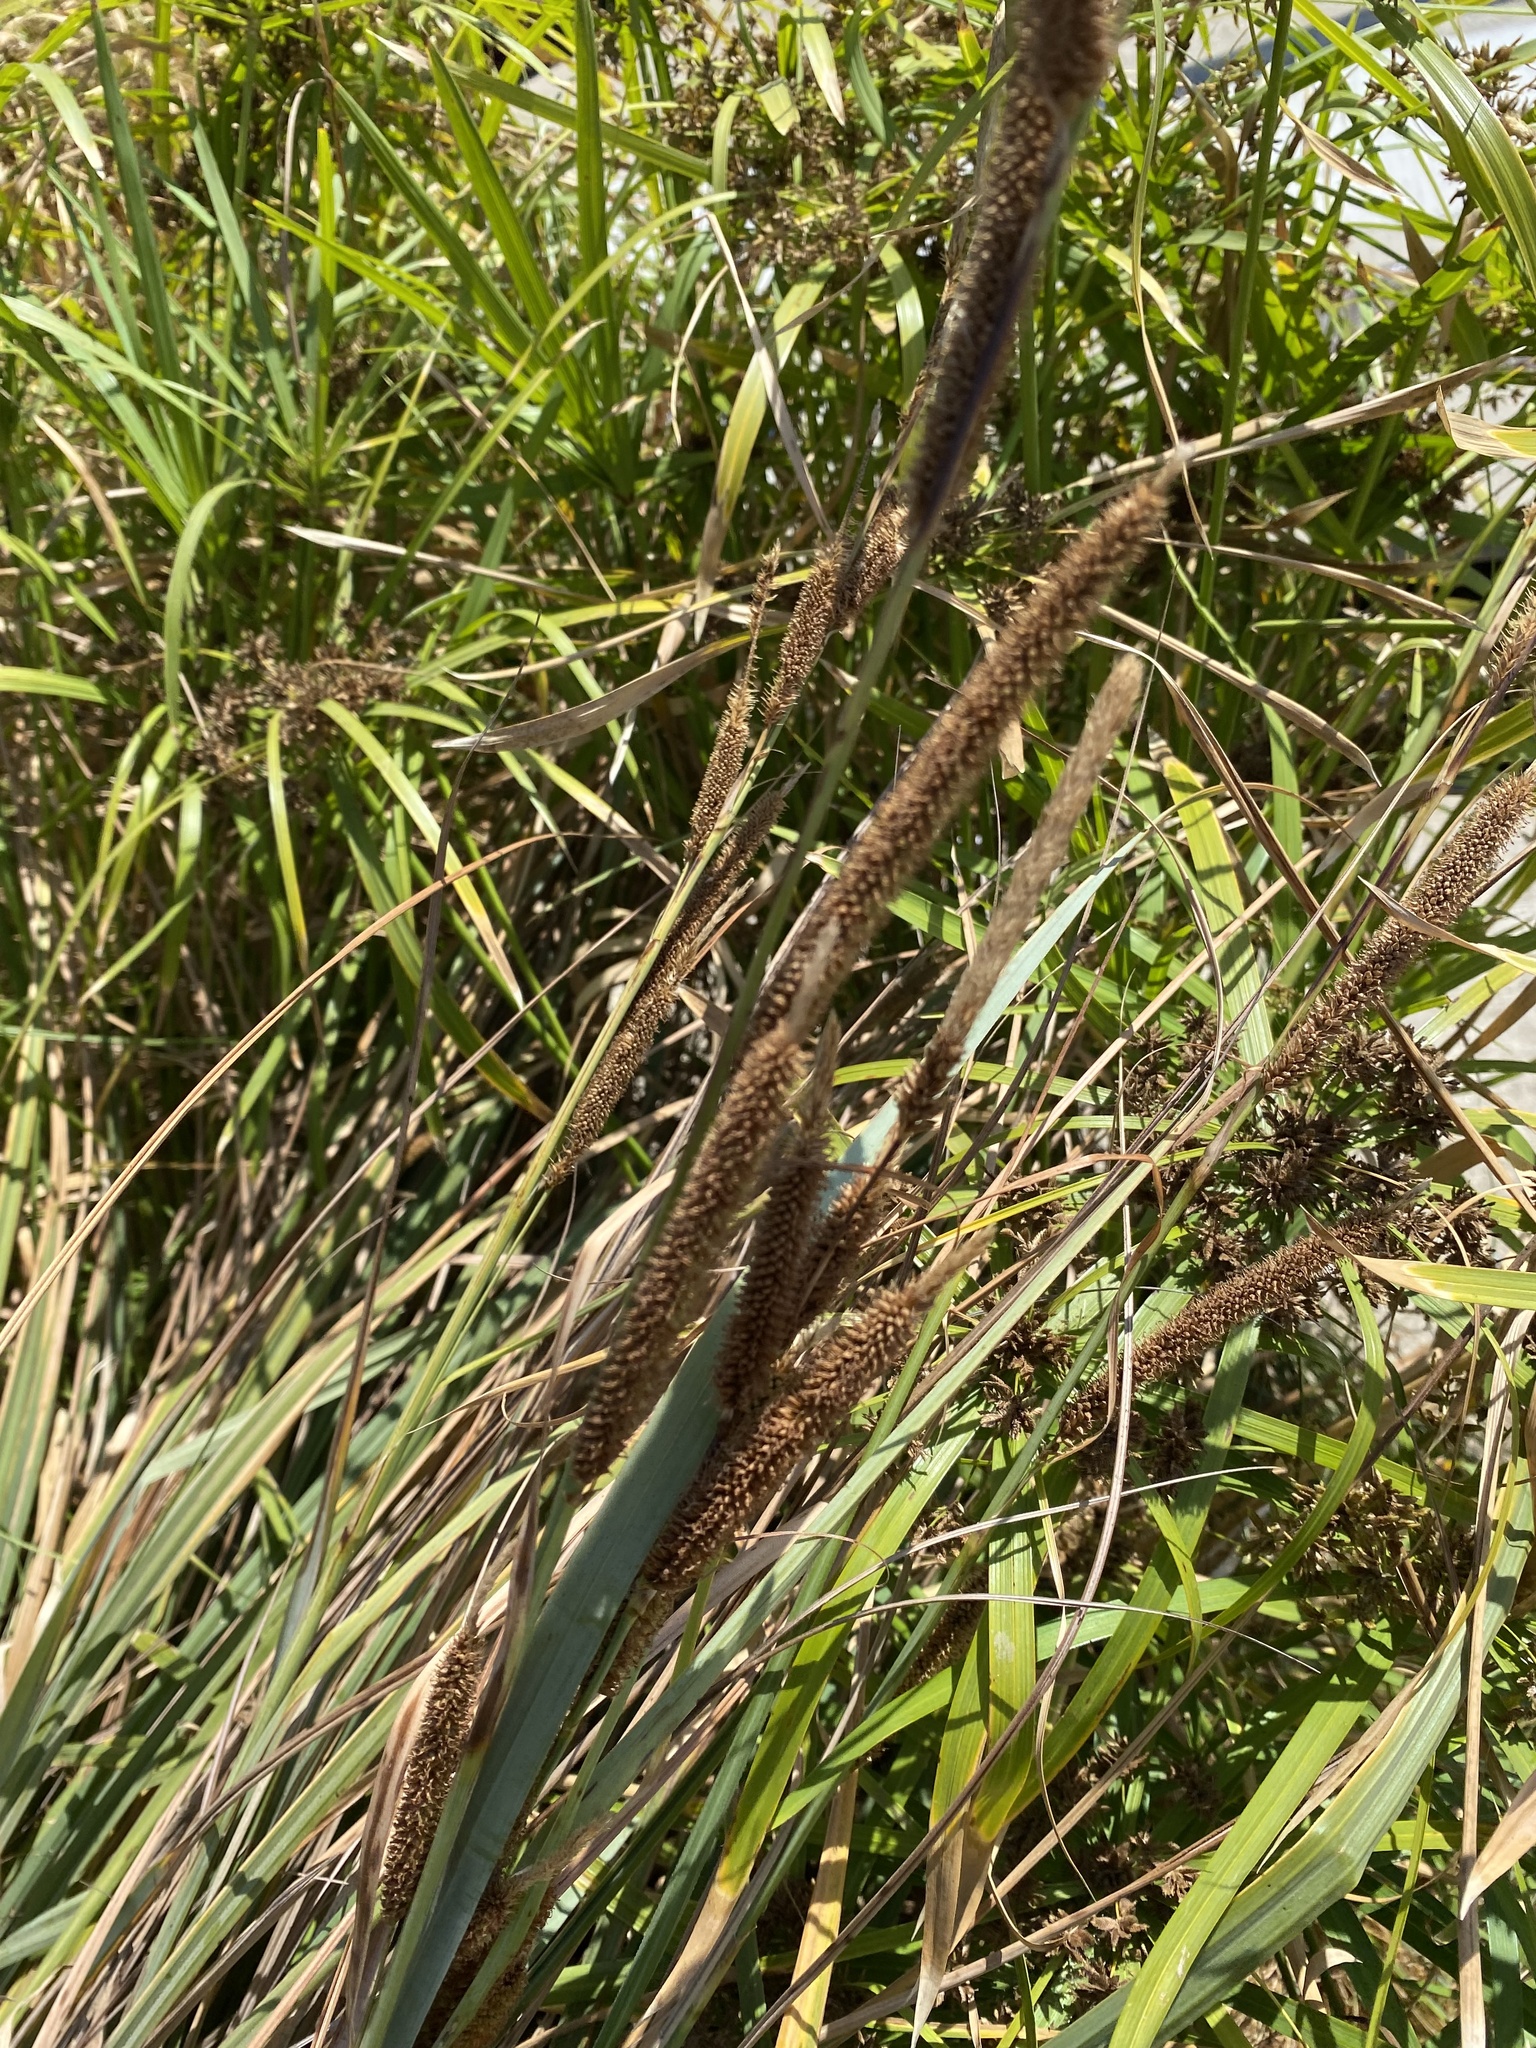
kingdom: Plantae
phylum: Tracheophyta
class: Liliopsida
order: Poales
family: Cyperaceae
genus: Carex
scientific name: Carex spissa
